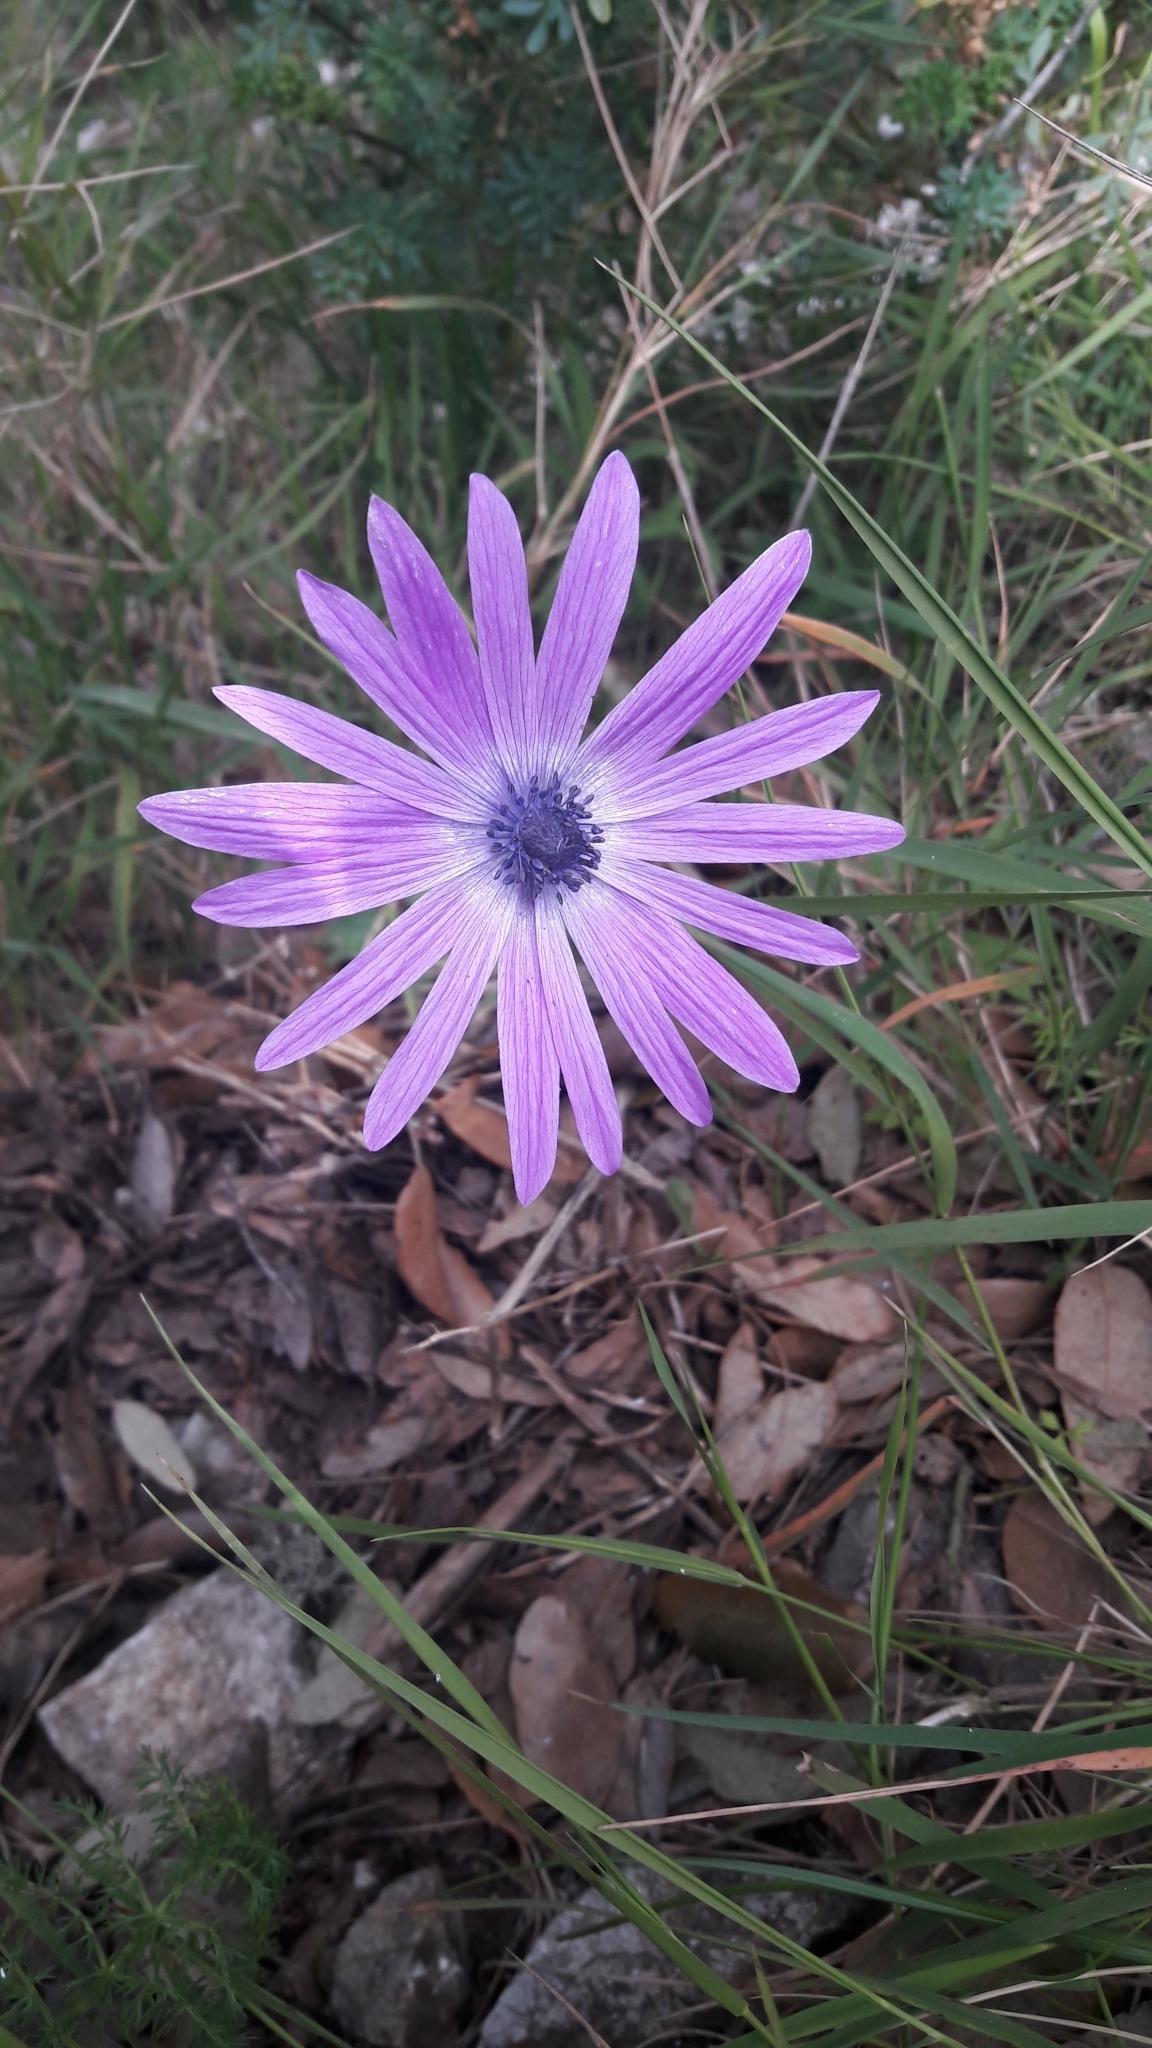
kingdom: Plantae
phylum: Tracheophyta
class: Magnoliopsida
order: Ranunculales
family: Ranunculaceae
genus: Anemone
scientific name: Anemone hortensis
